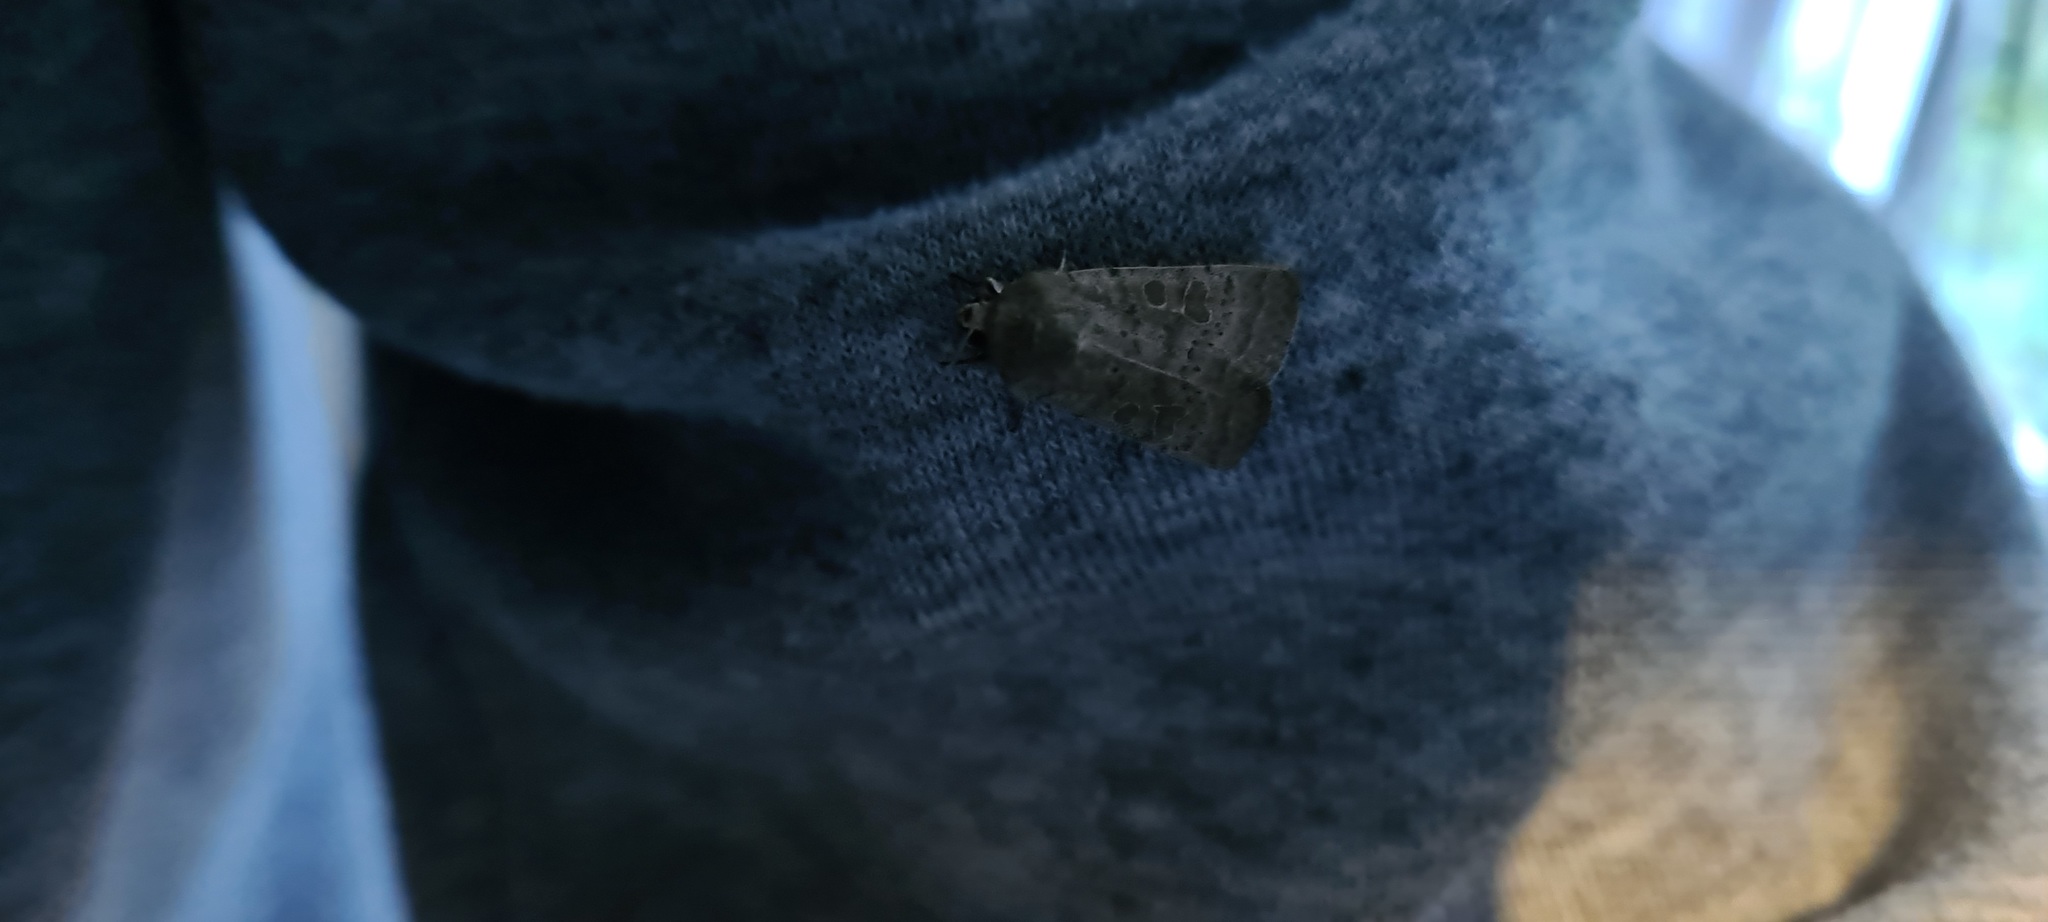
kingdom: Animalia
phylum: Arthropoda
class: Insecta
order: Lepidoptera
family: Noctuidae
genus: Hoplodrina
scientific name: Hoplodrina ambigua
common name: Vine's rustic
